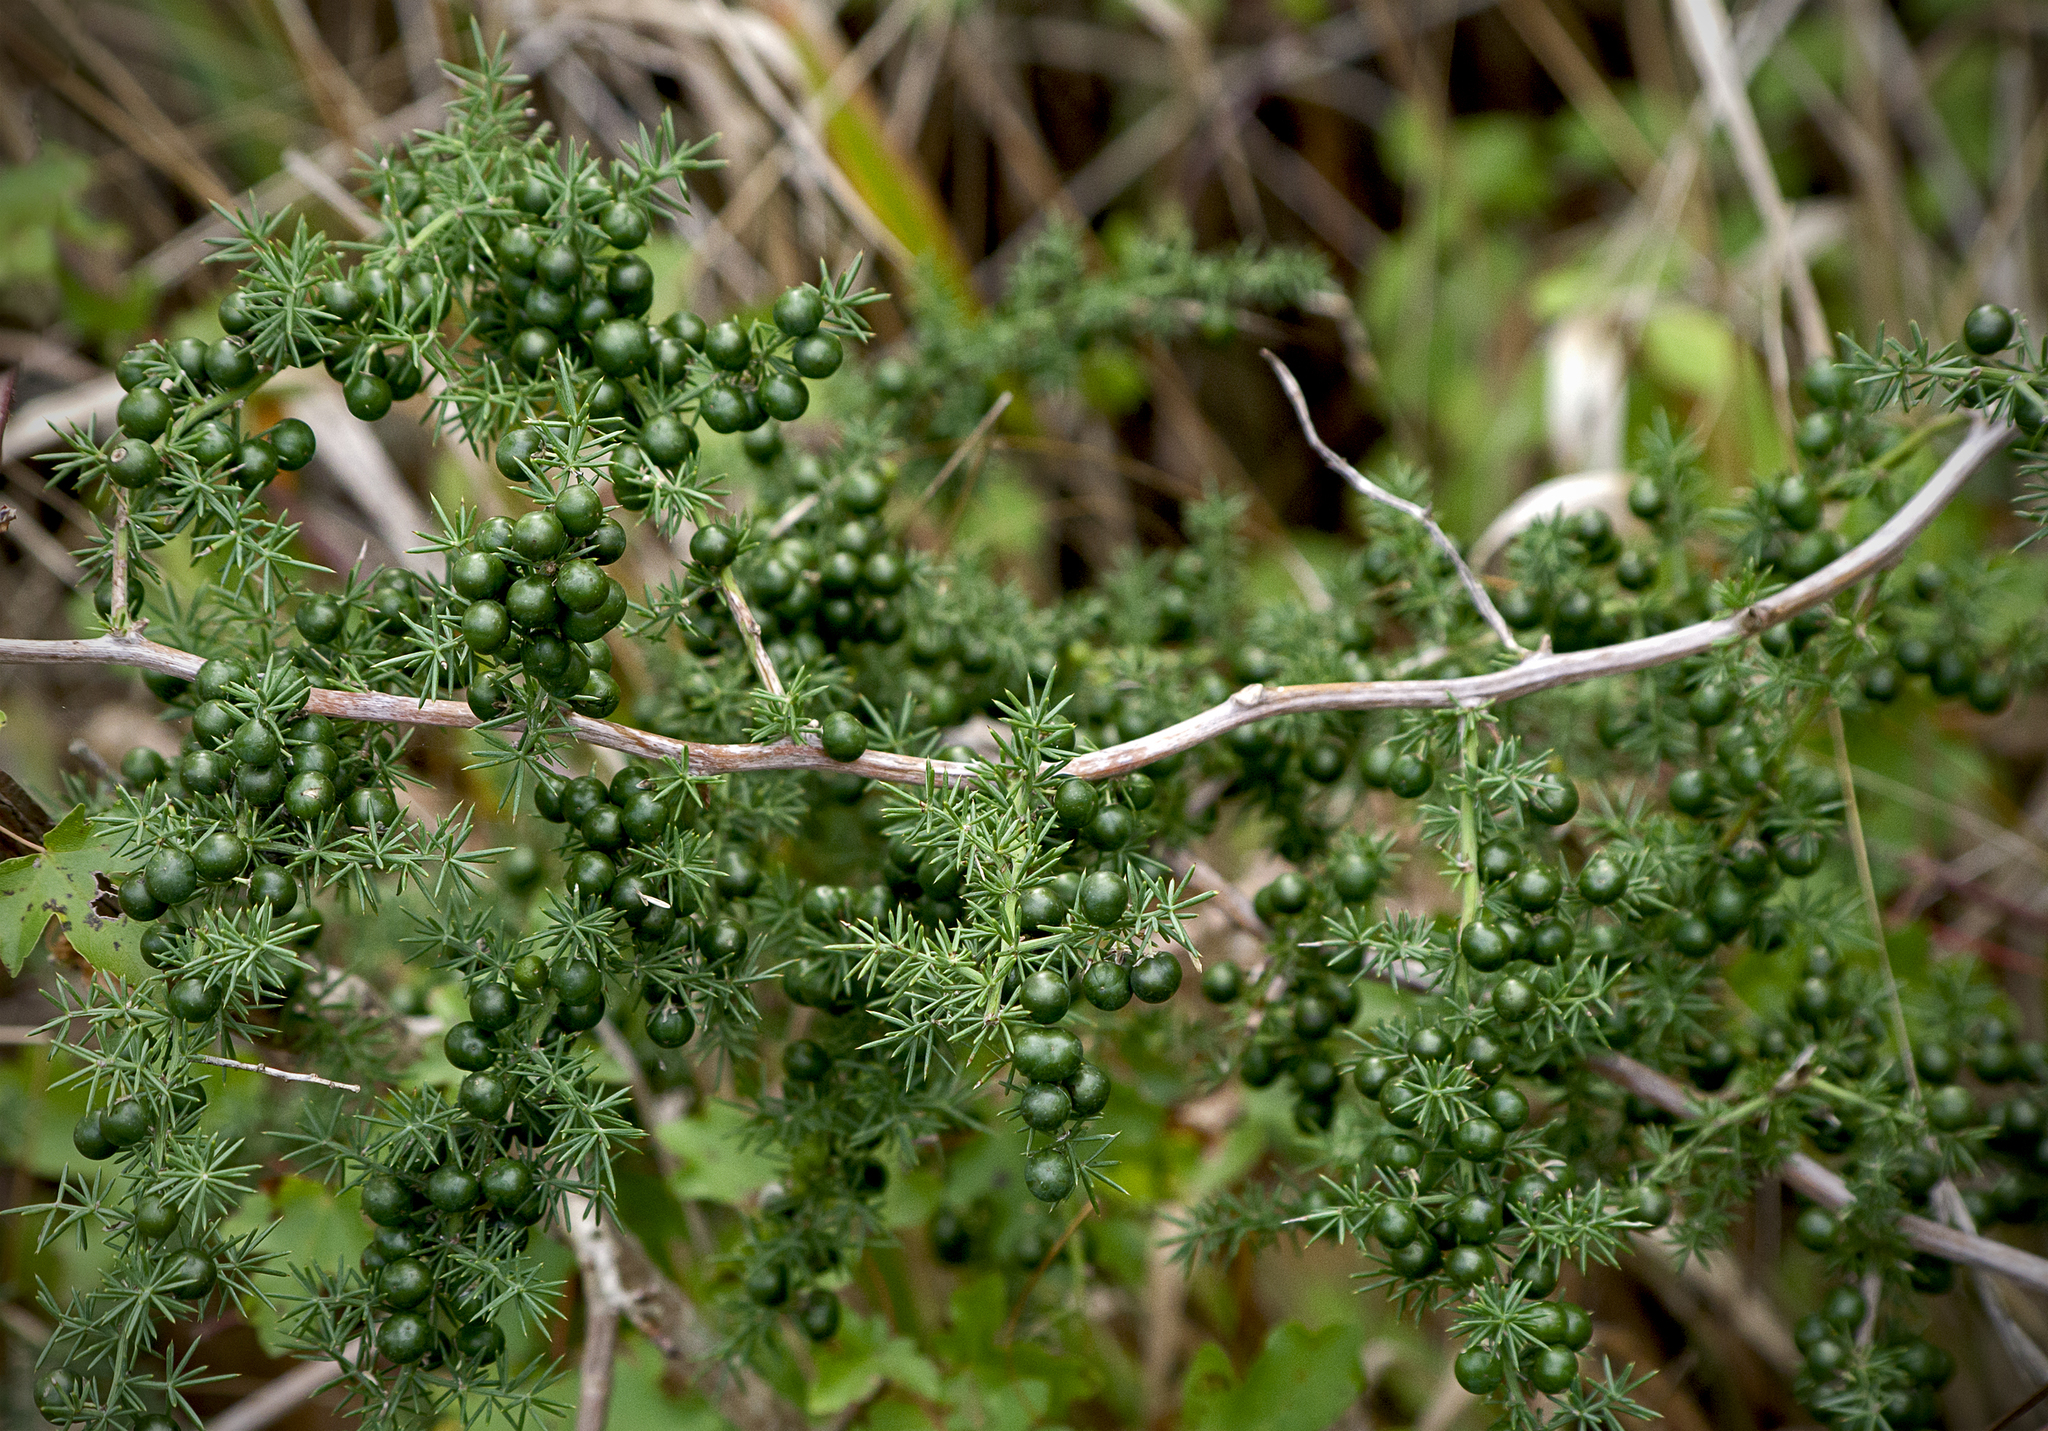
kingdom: Plantae
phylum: Tracheophyta
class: Liliopsida
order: Asparagales
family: Asparagaceae
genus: Asparagus
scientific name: Asparagus acutifolius
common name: Wild asparagus
